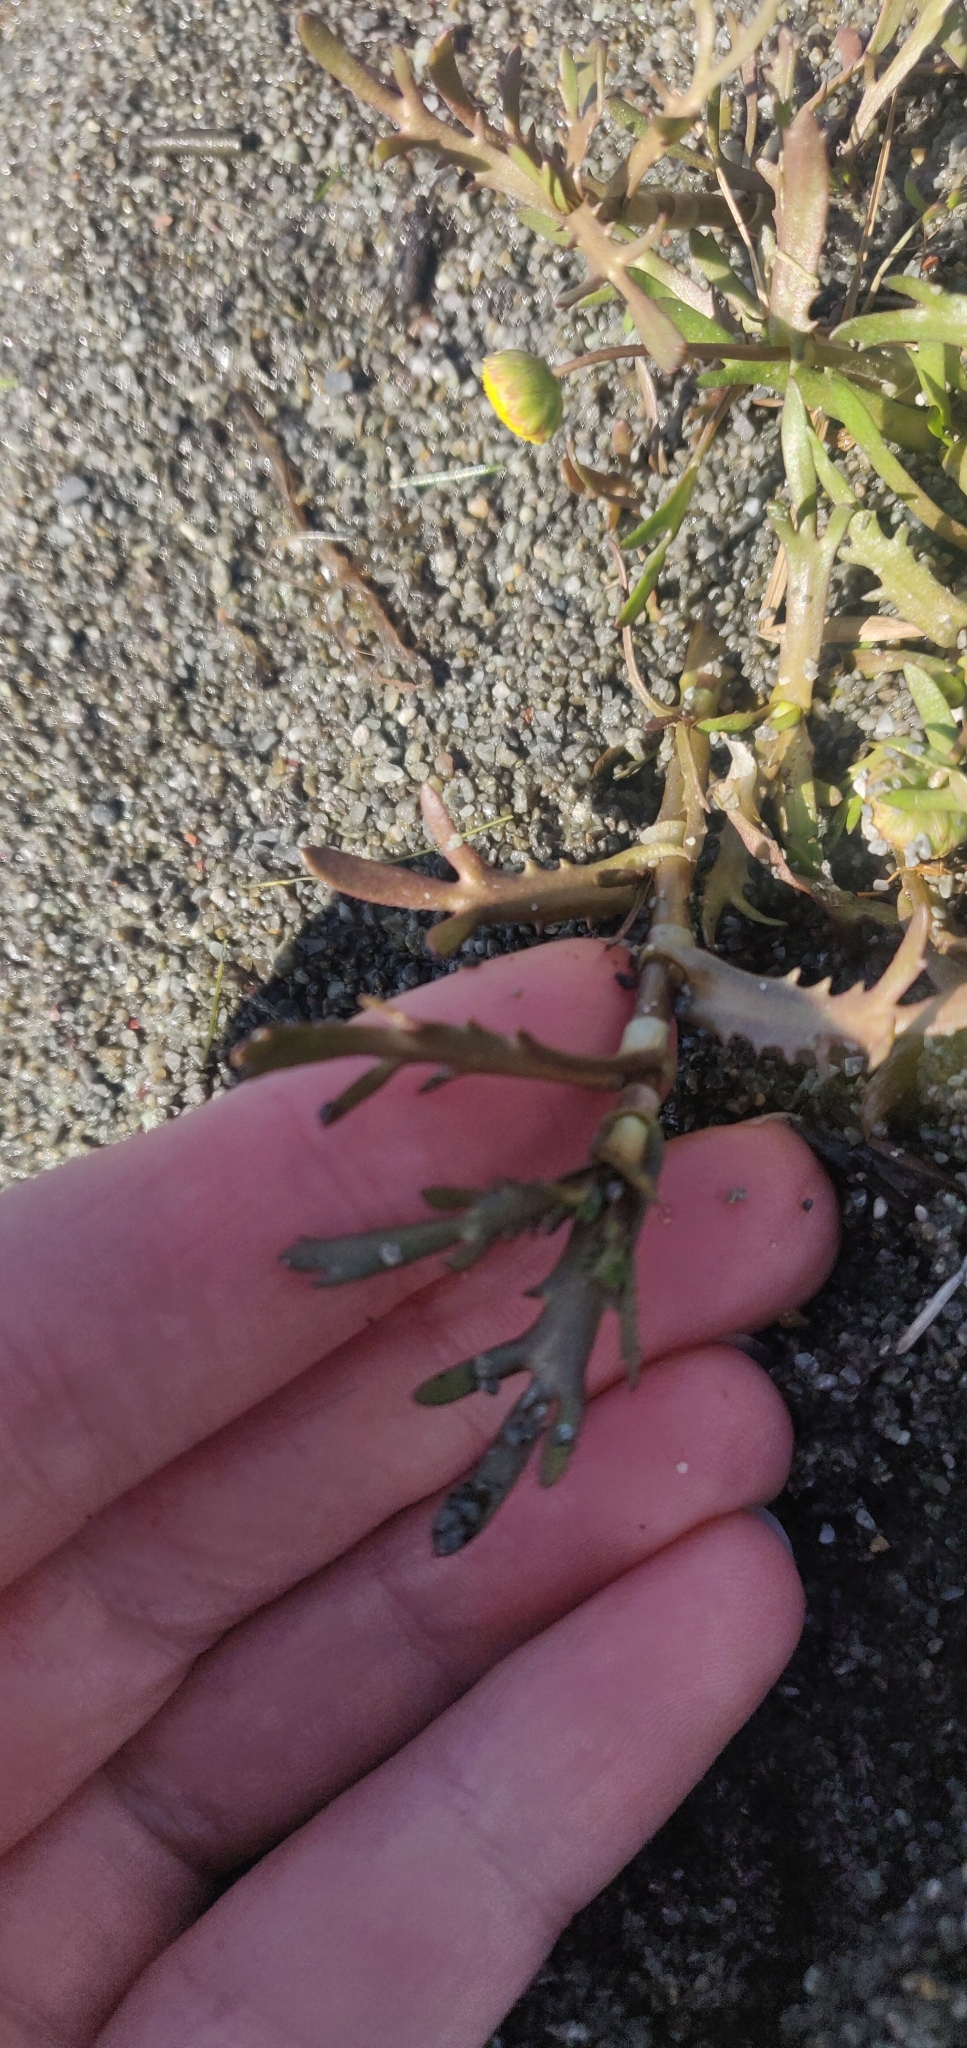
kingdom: Plantae
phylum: Tracheophyta
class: Magnoliopsida
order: Asterales
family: Asteraceae
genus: Cotula
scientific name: Cotula coronopifolia
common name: Buttonweed
